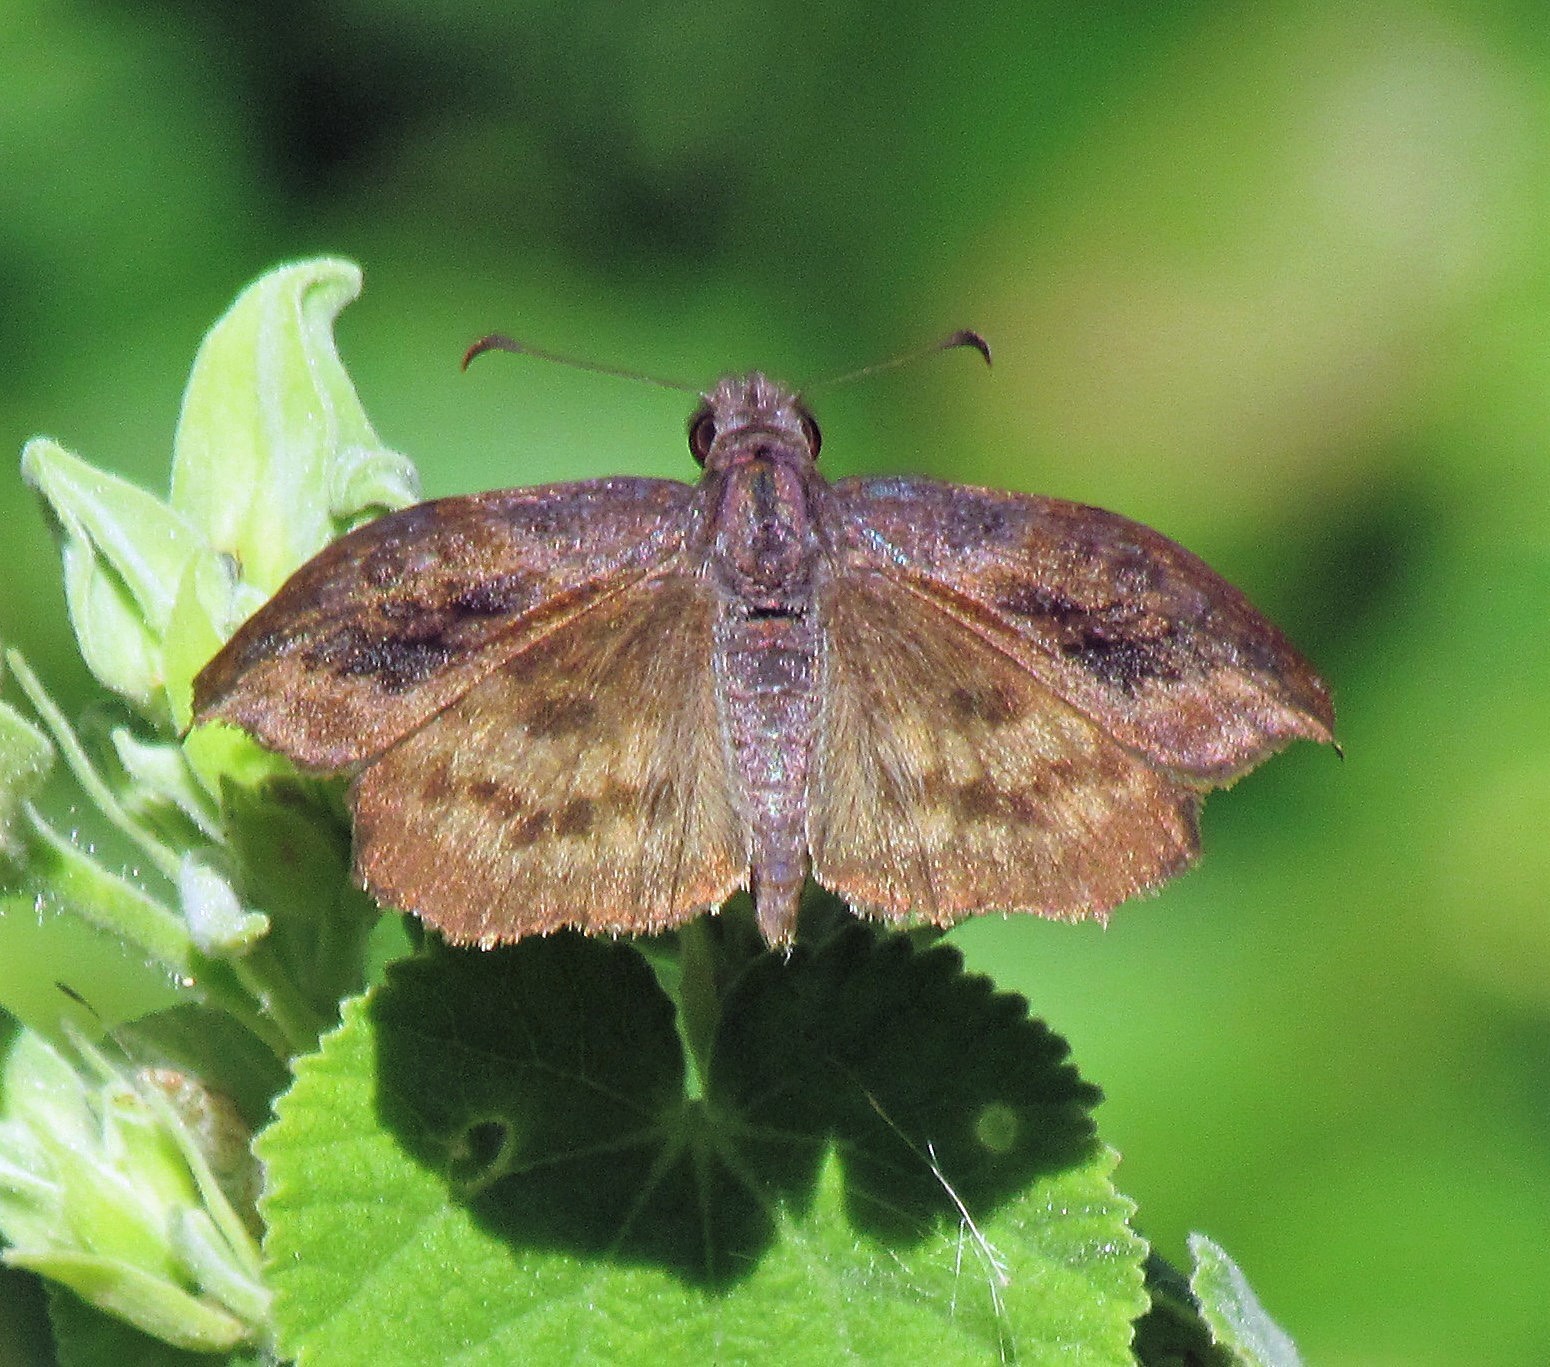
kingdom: Animalia
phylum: Arthropoda
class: Insecta
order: Lepidoptera
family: Hesperiidae
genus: Theagenes
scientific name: Theagenes dichrous
